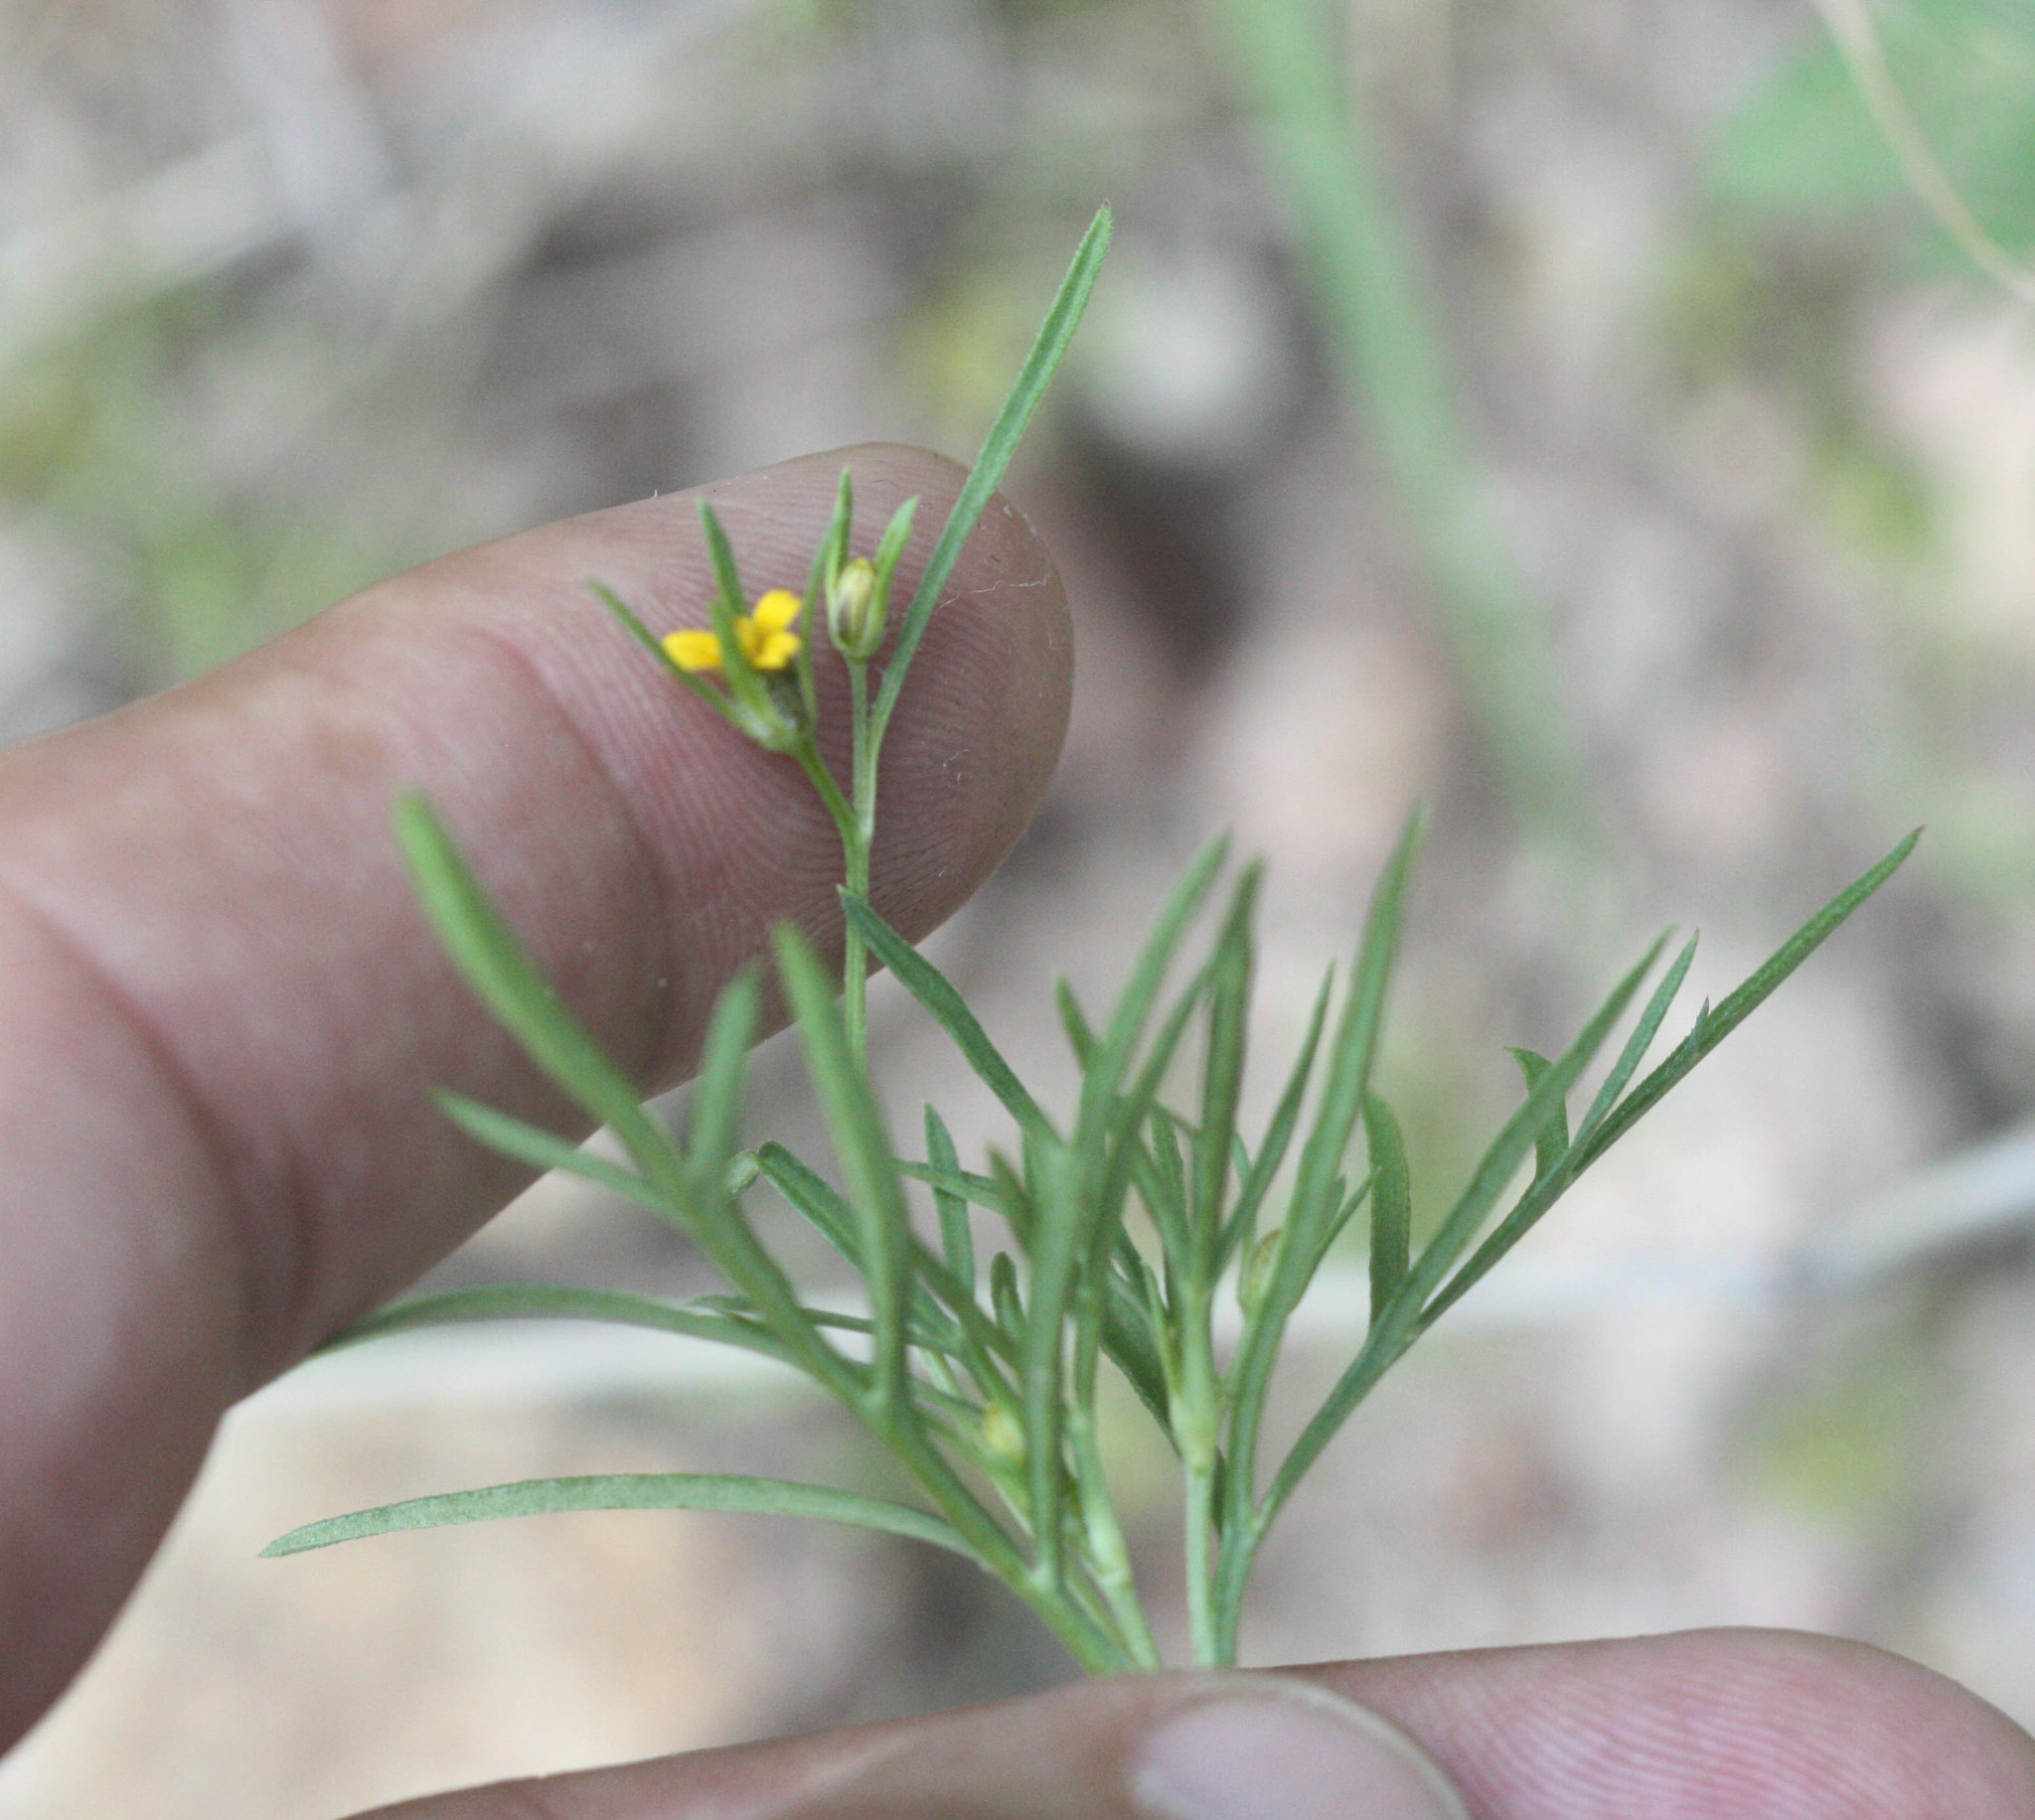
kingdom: Plantae
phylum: Tracheophyta
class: Magnoliopsida
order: Asterales
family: Asteraceae
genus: Heterosperma
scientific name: Heterosperma pinnatum
